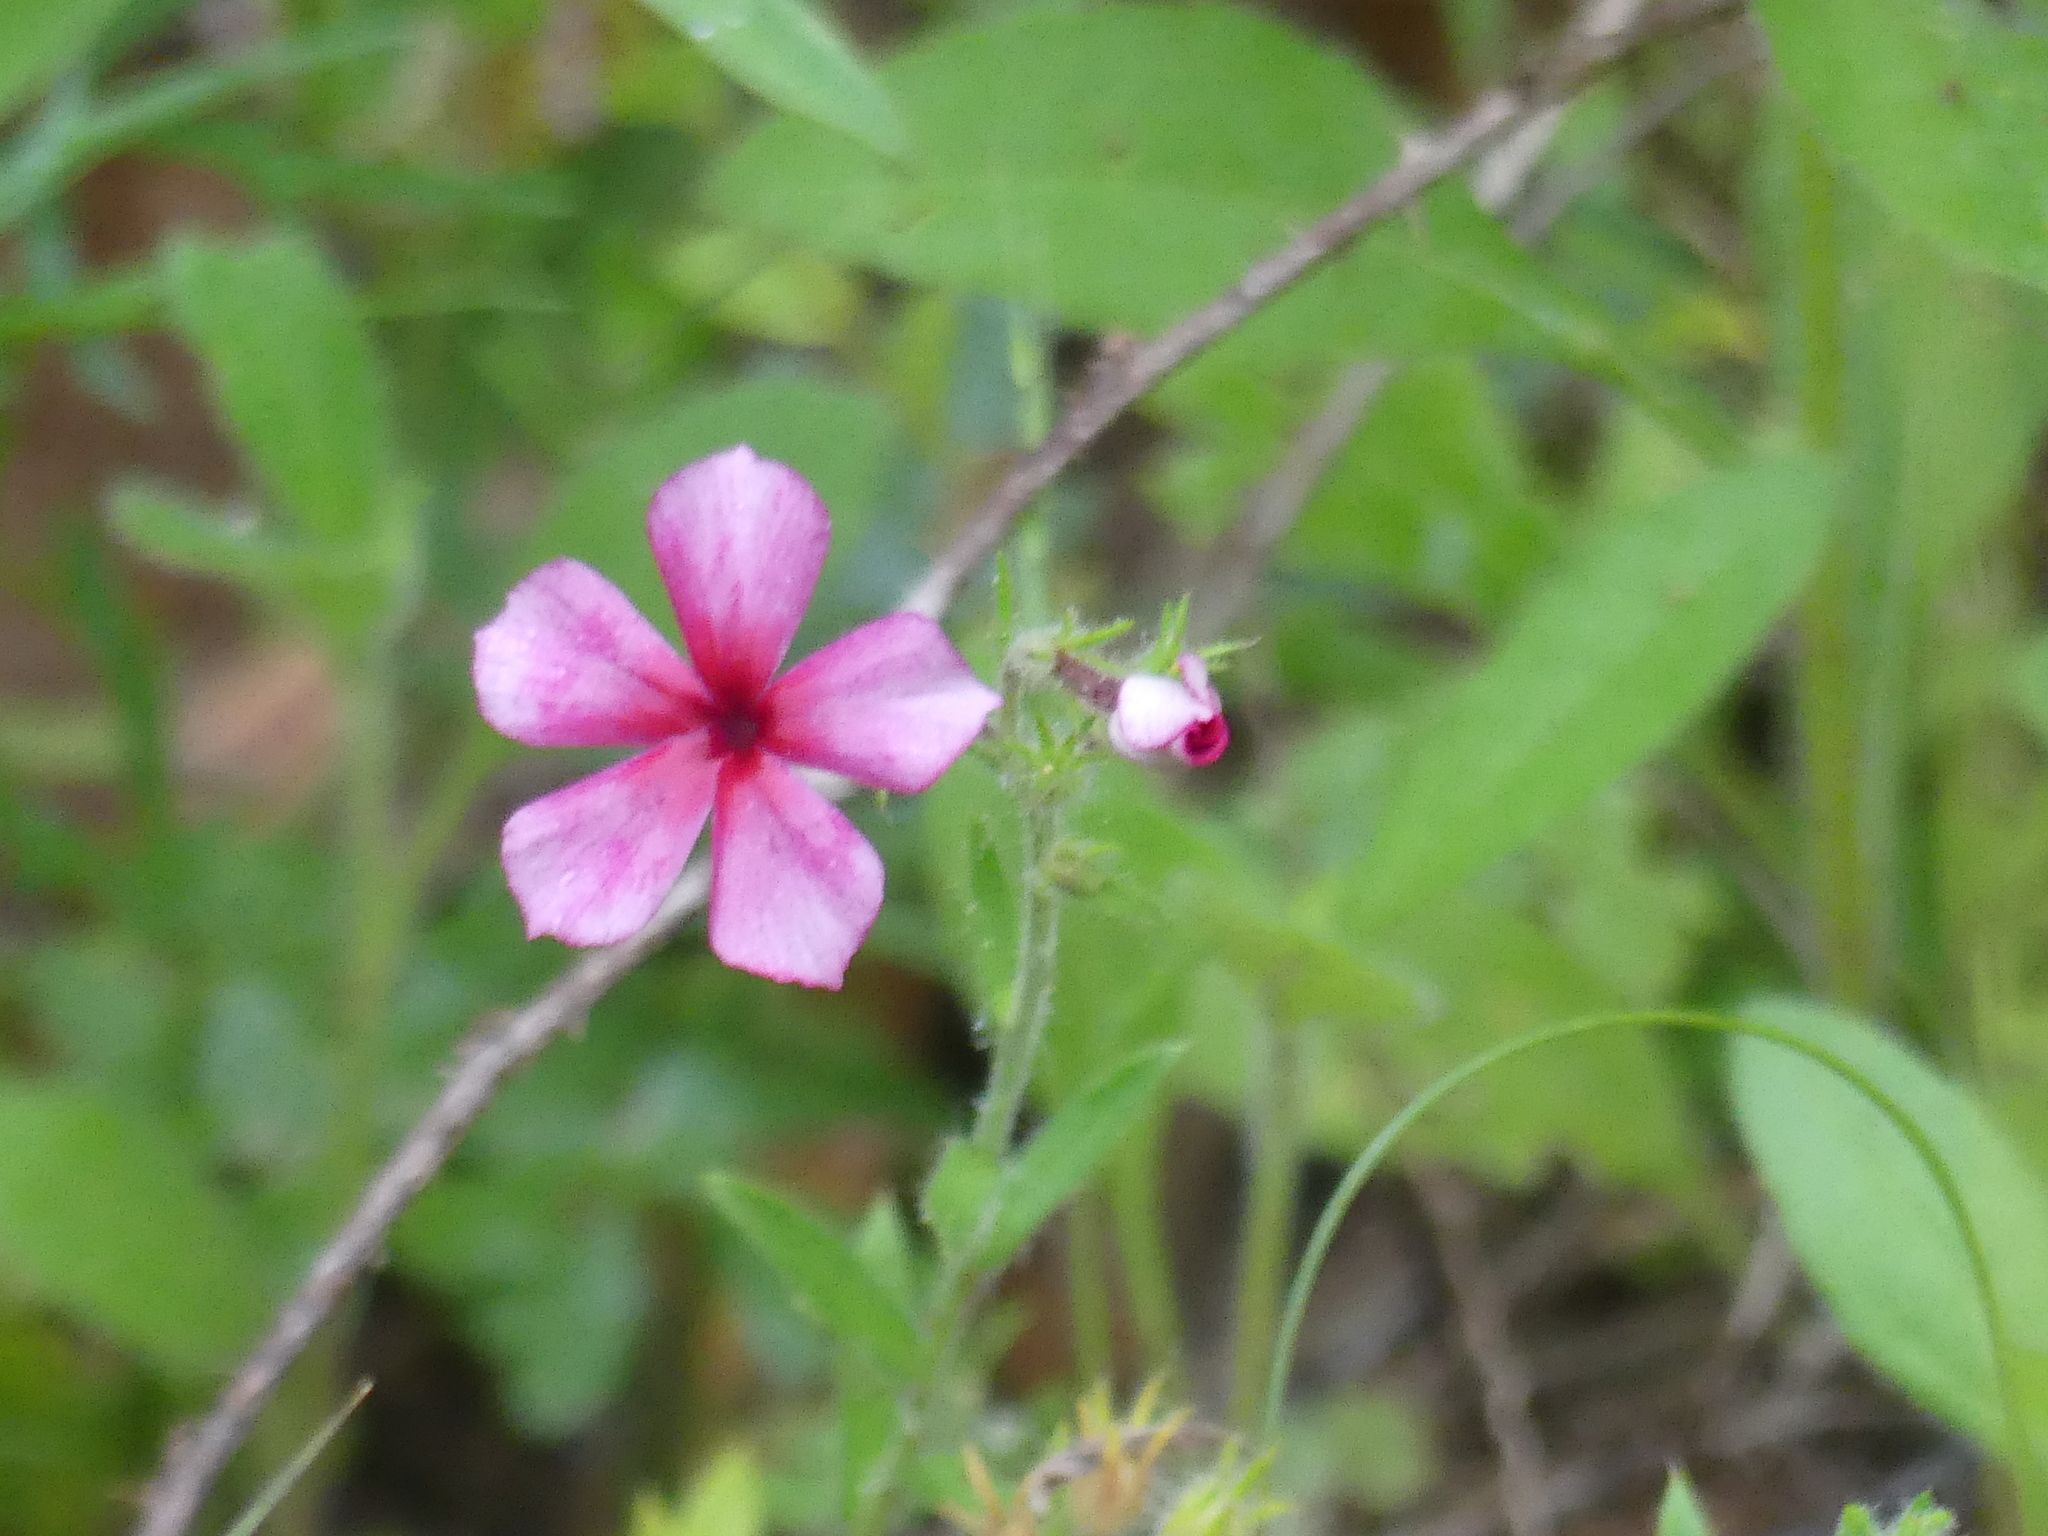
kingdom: Plantae
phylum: Tracheophyta
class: Magnoliopsida
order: Ericales
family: Polemoniaceae
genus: Phlox
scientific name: Phlox drummondii
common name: Drummond's phlox
